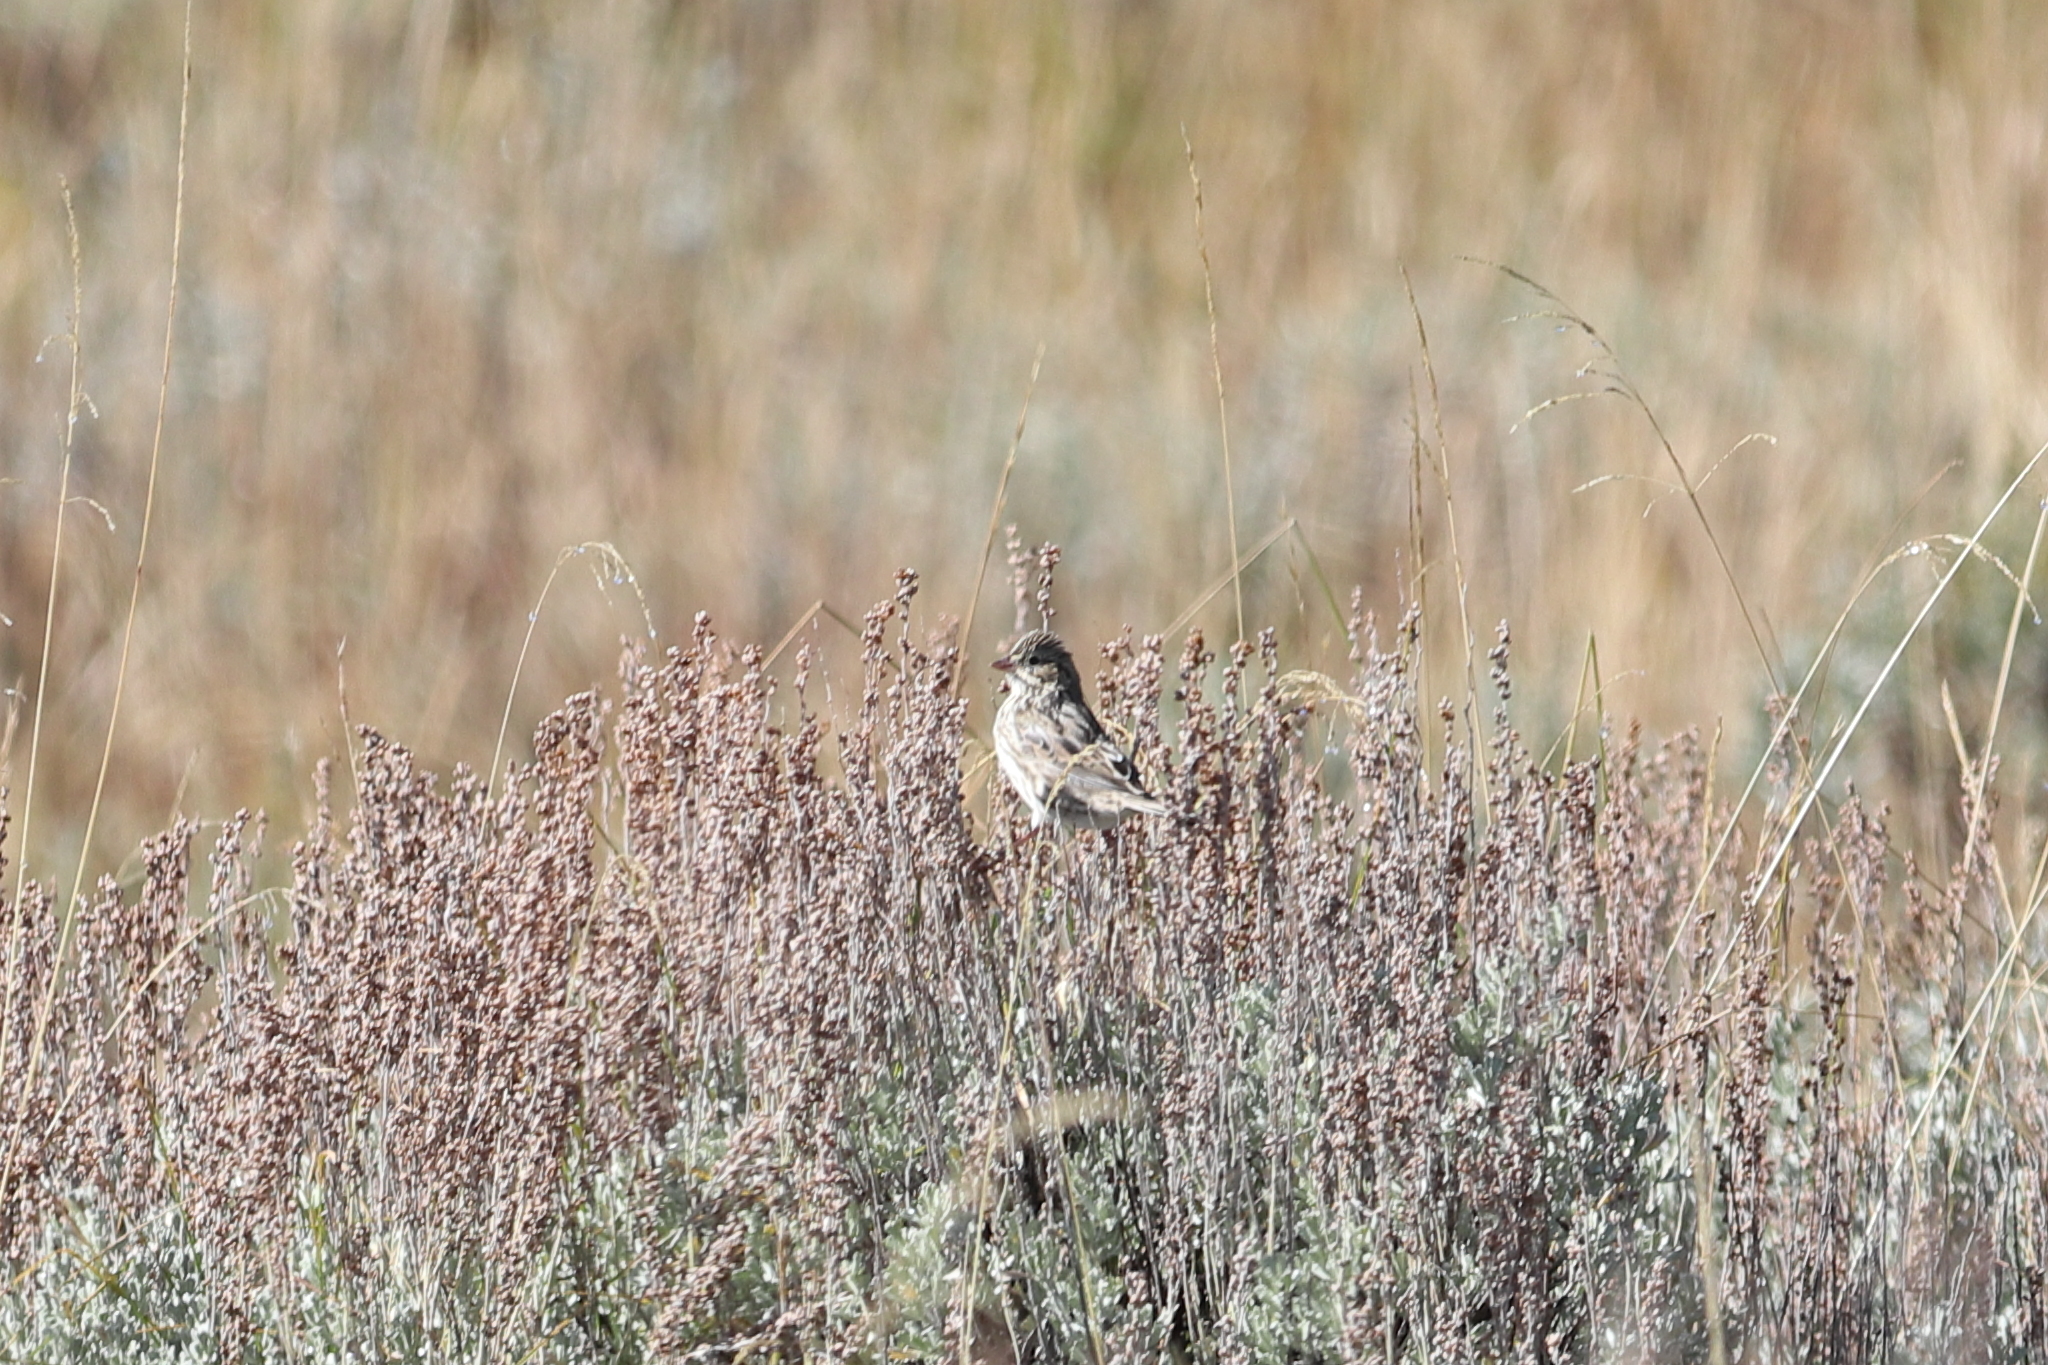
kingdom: Animalia
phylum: Chordata
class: Aves
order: Passeriformes
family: Passerellidae
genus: Spizella
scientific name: Spizella breweri
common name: Brewer's sparrow
